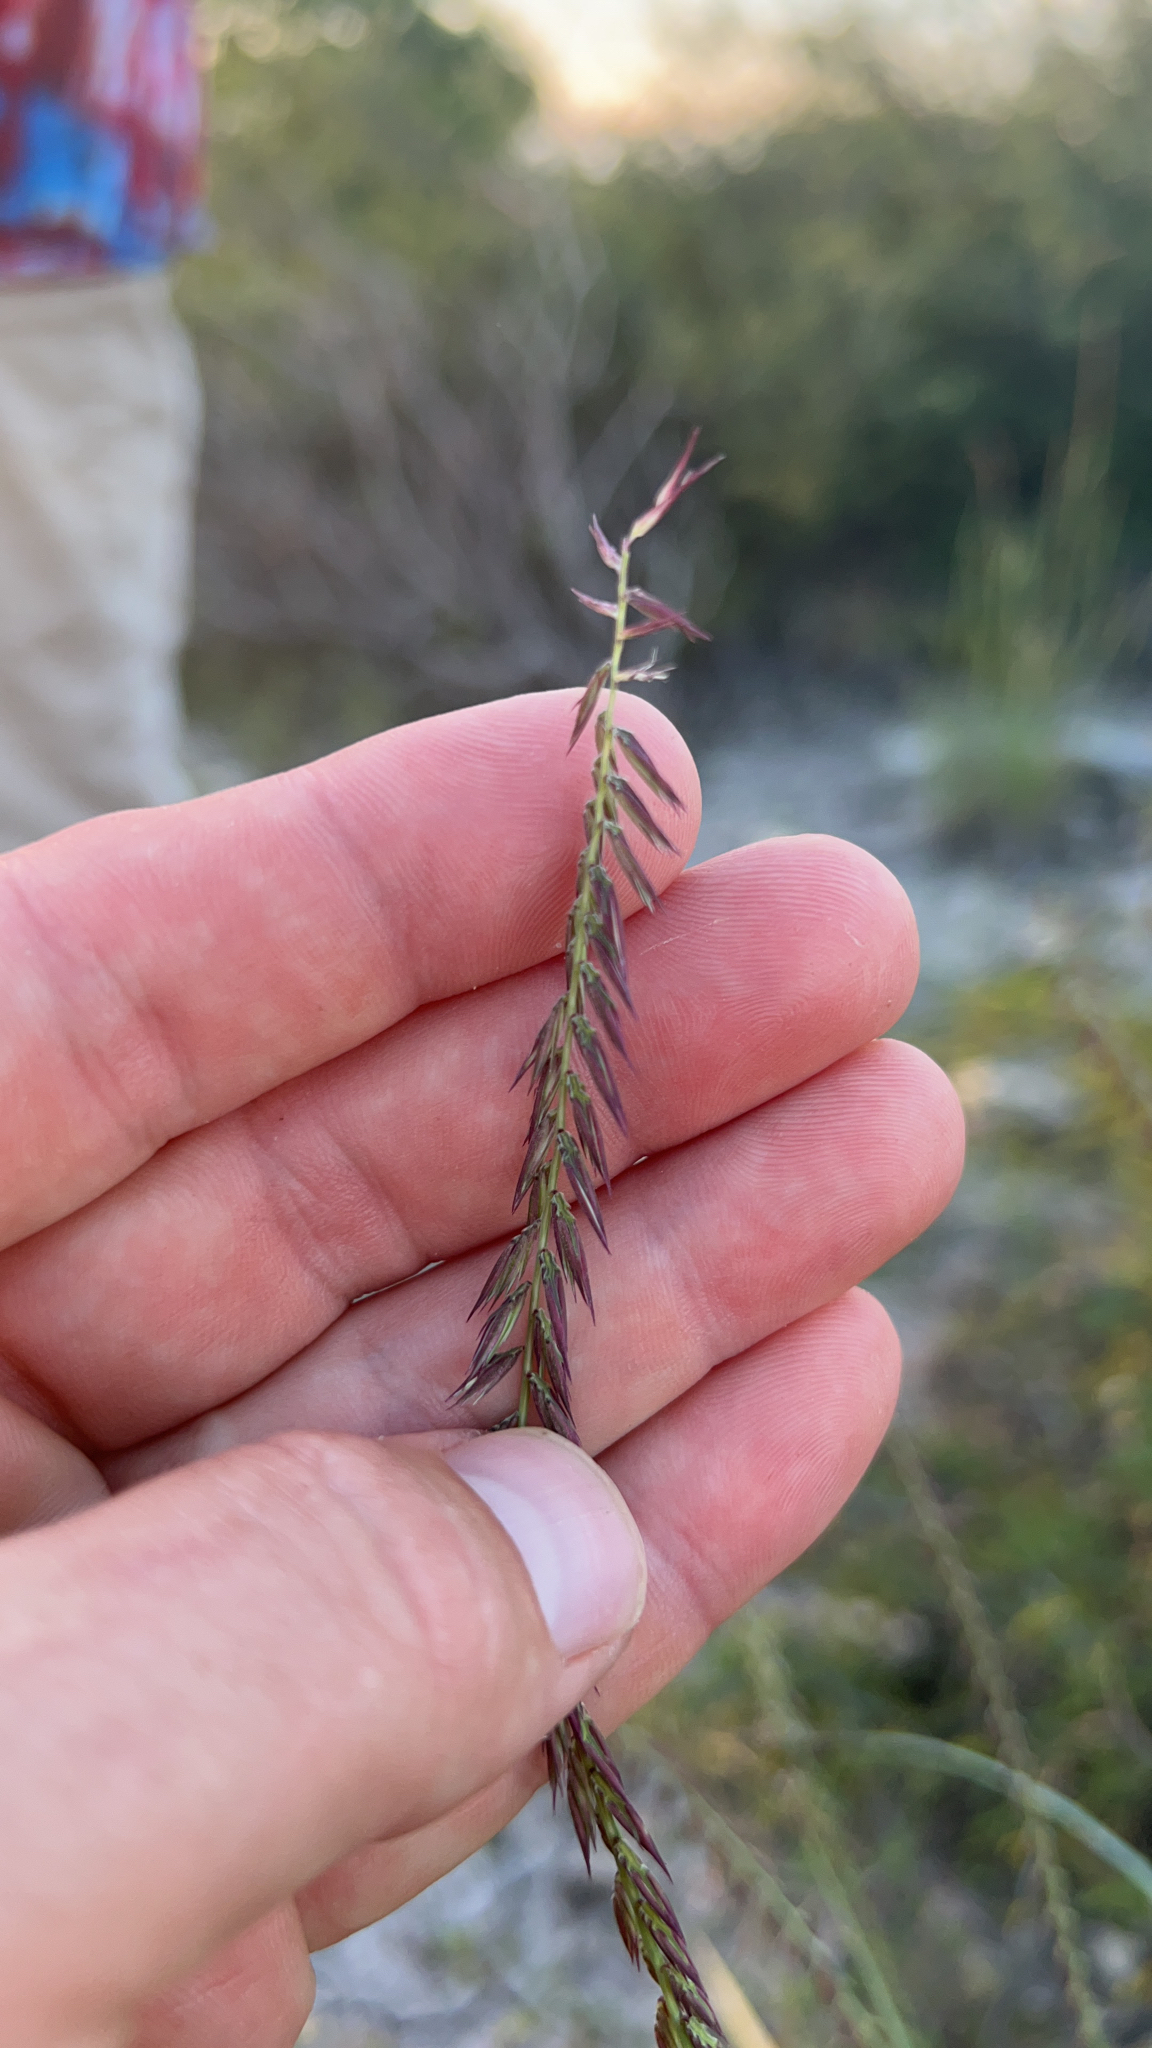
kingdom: Plantae
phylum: Tracheophyta
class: Liliopsida
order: Poales
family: Poaceae
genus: Bouteloua
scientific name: Bouteloua curtipendula
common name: Side-oats grama
